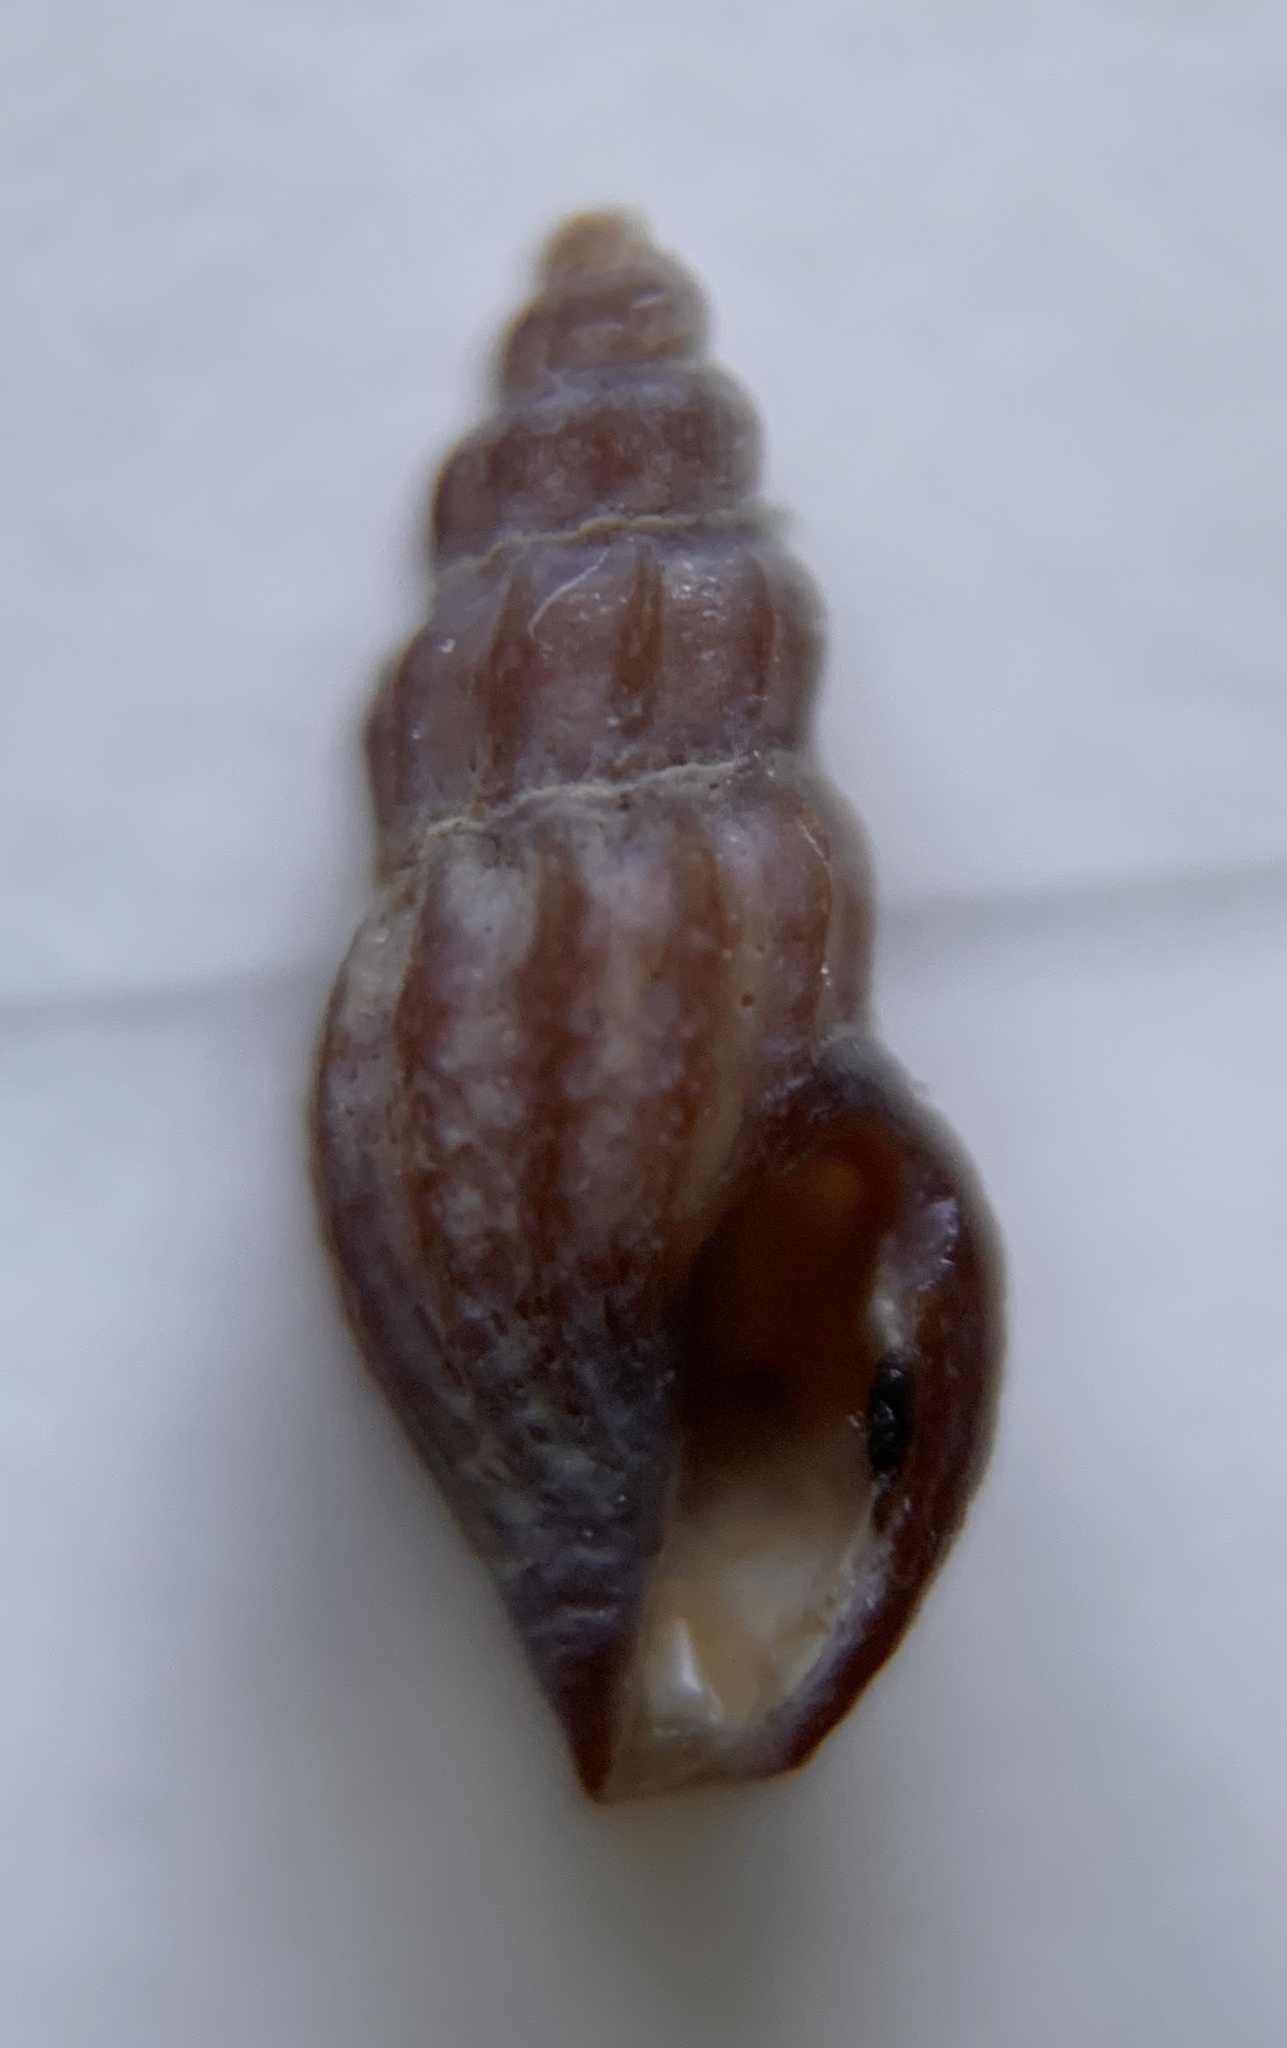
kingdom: Animalia
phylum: Mollusca
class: Gastropoda
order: Neogastropoda
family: Mangeliidae
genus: Pyrgocythara
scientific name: Pyrgocythara plicosa
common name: Plicate mangelia
